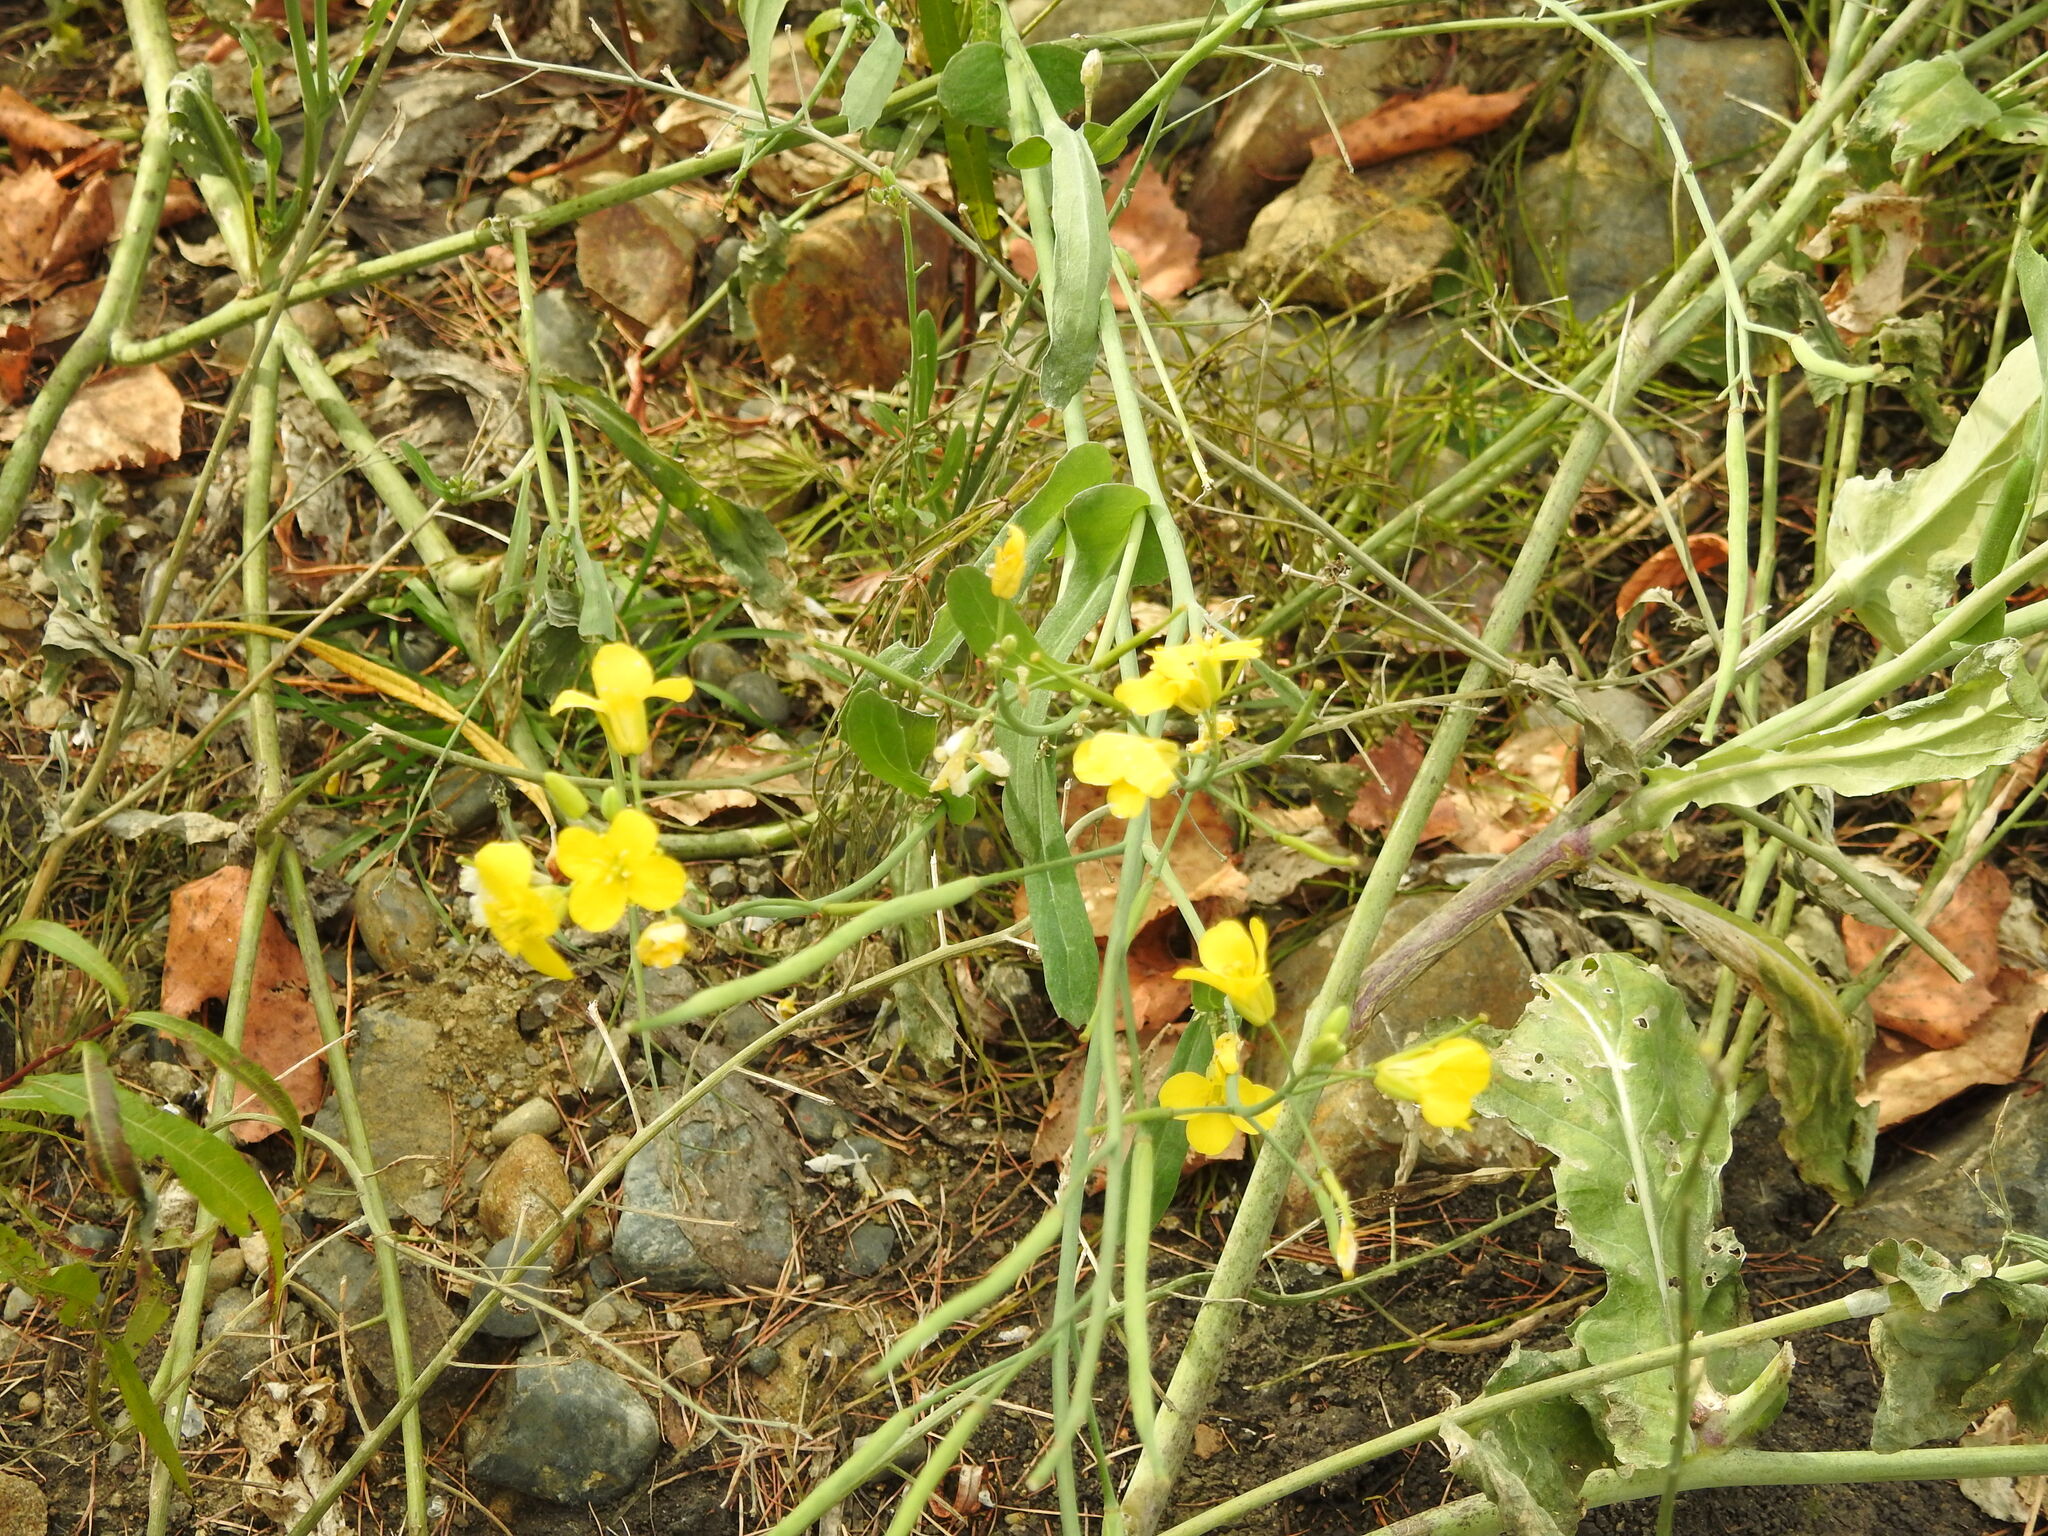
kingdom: Plantae
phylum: Tracheophyta
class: Magnoliopsida
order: Brassicales
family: Brassicaceae
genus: Brassica
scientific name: Brassica napus
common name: Rape
